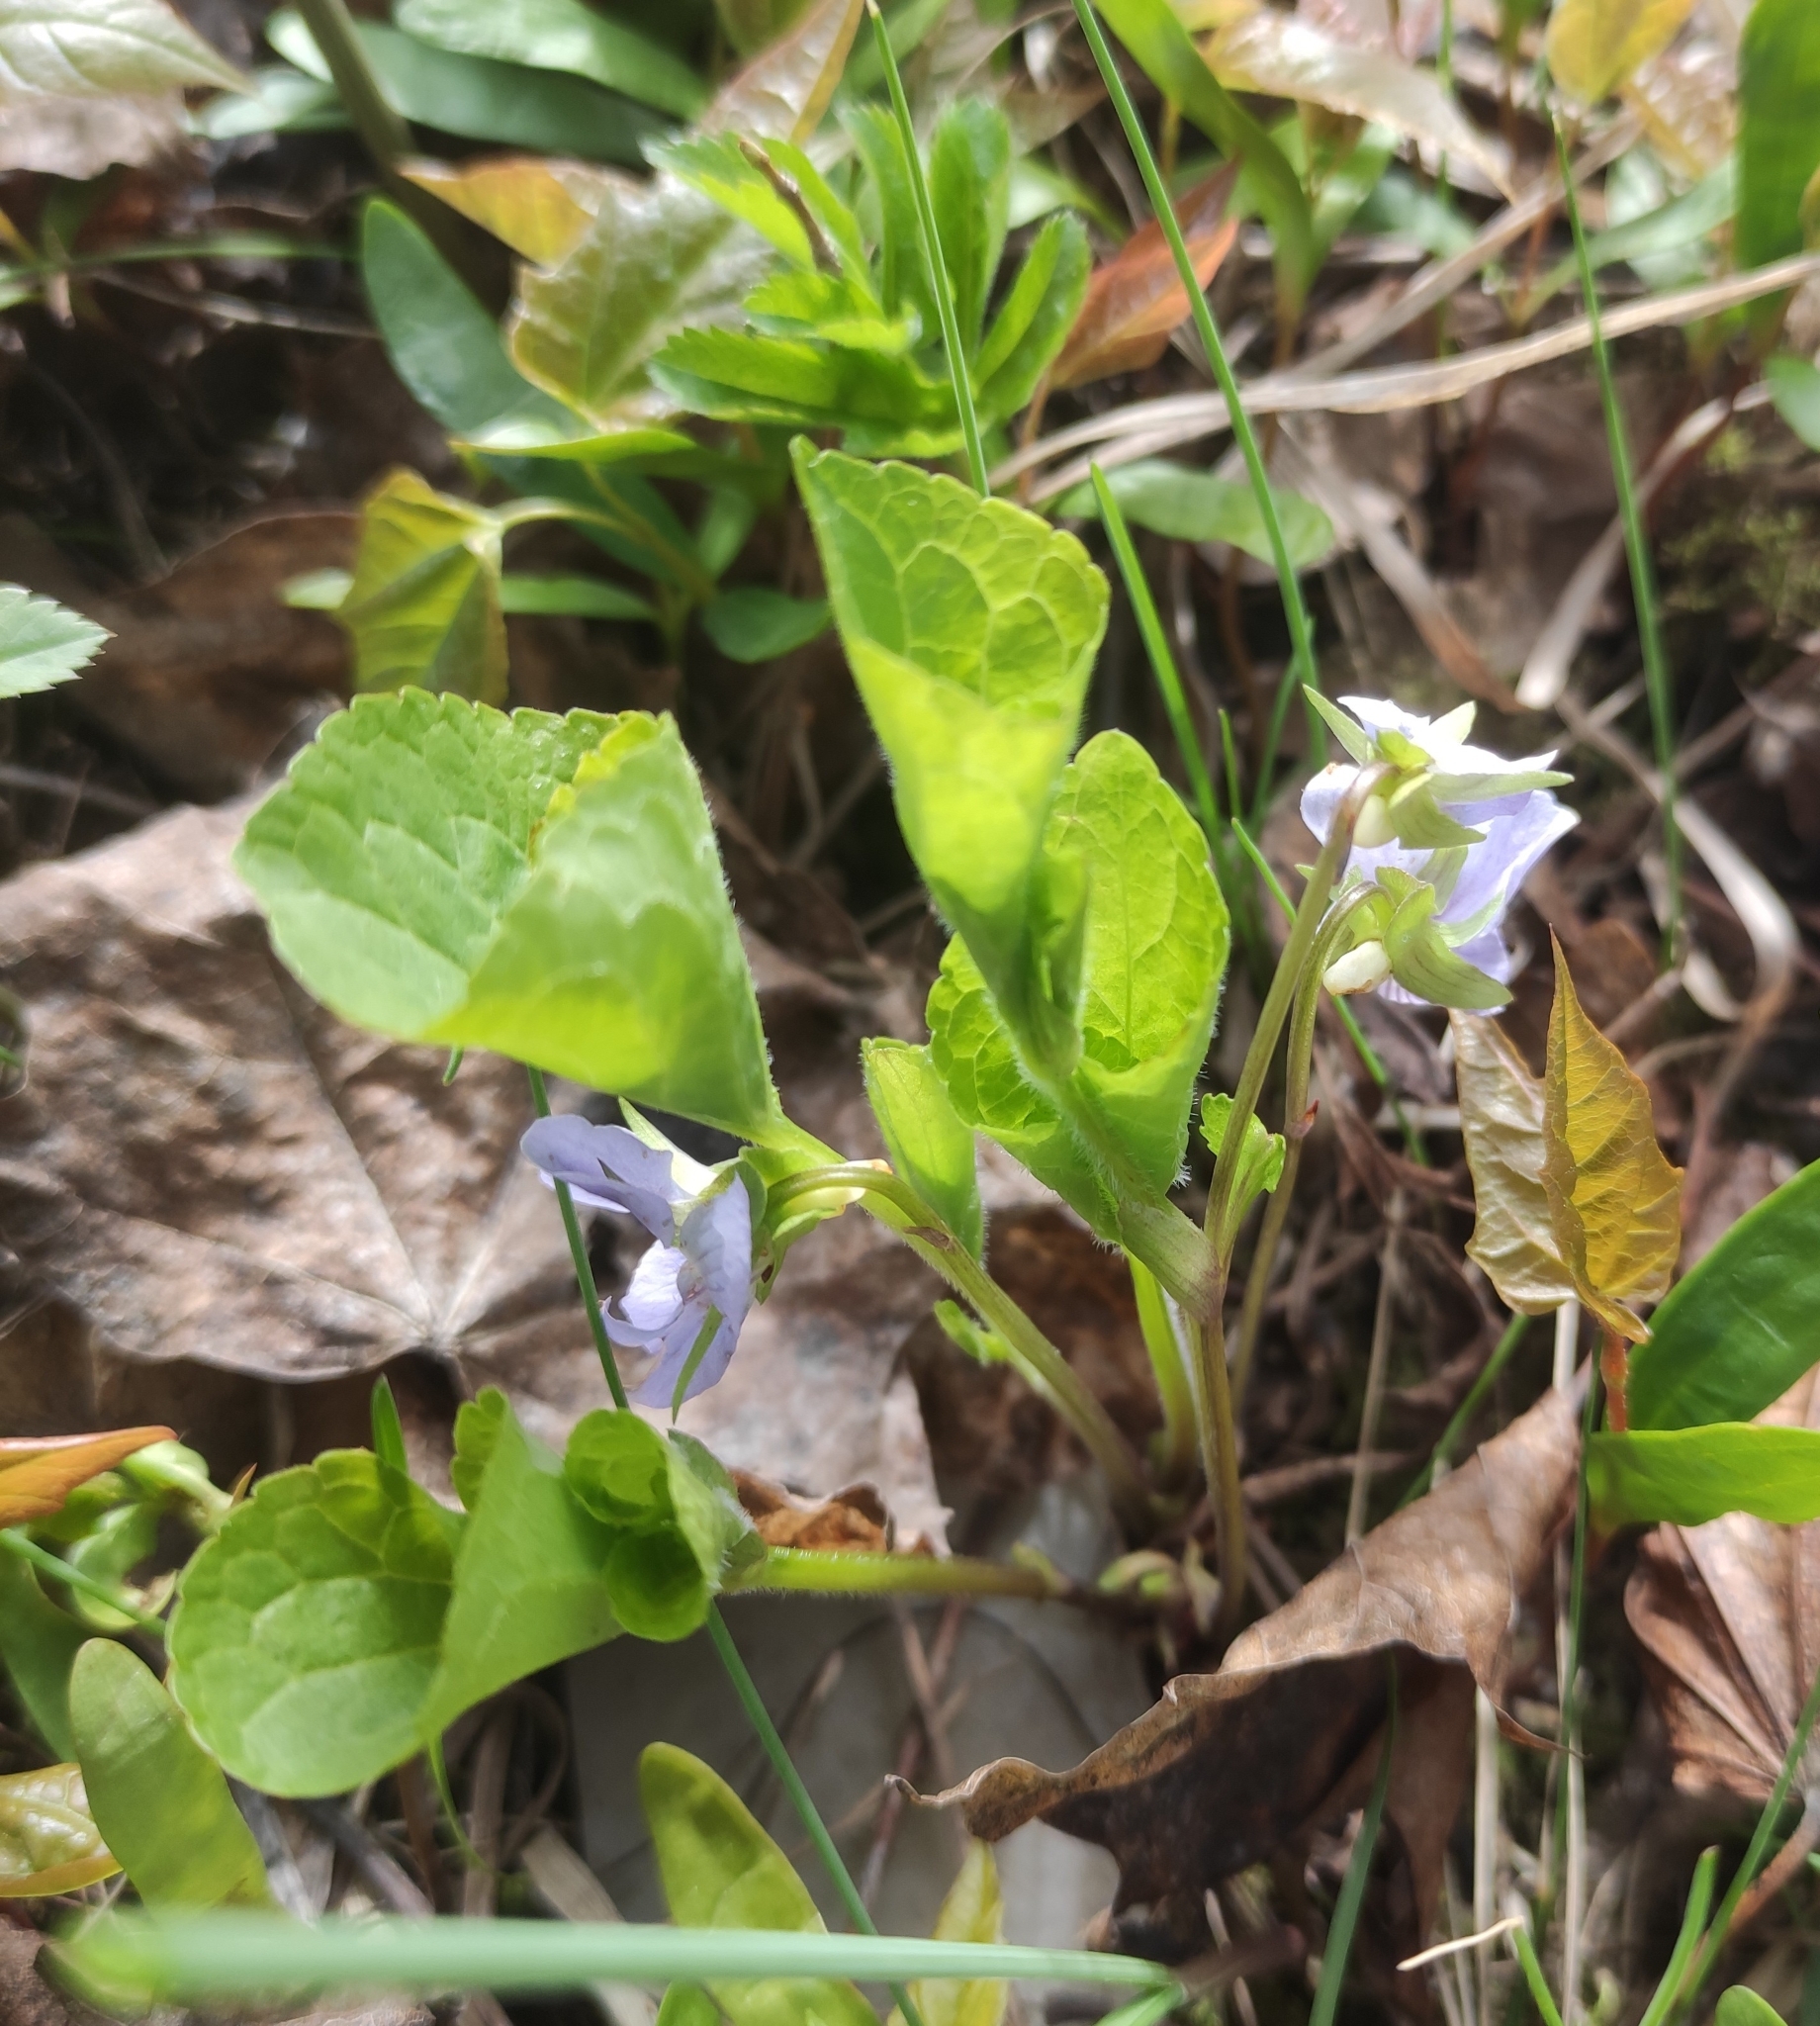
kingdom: Plantae
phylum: Tracheophyta
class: Magnoliopsida
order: Malpighiales
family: Violaceae
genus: Viola
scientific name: Viola mirabilis
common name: Wonder violet
